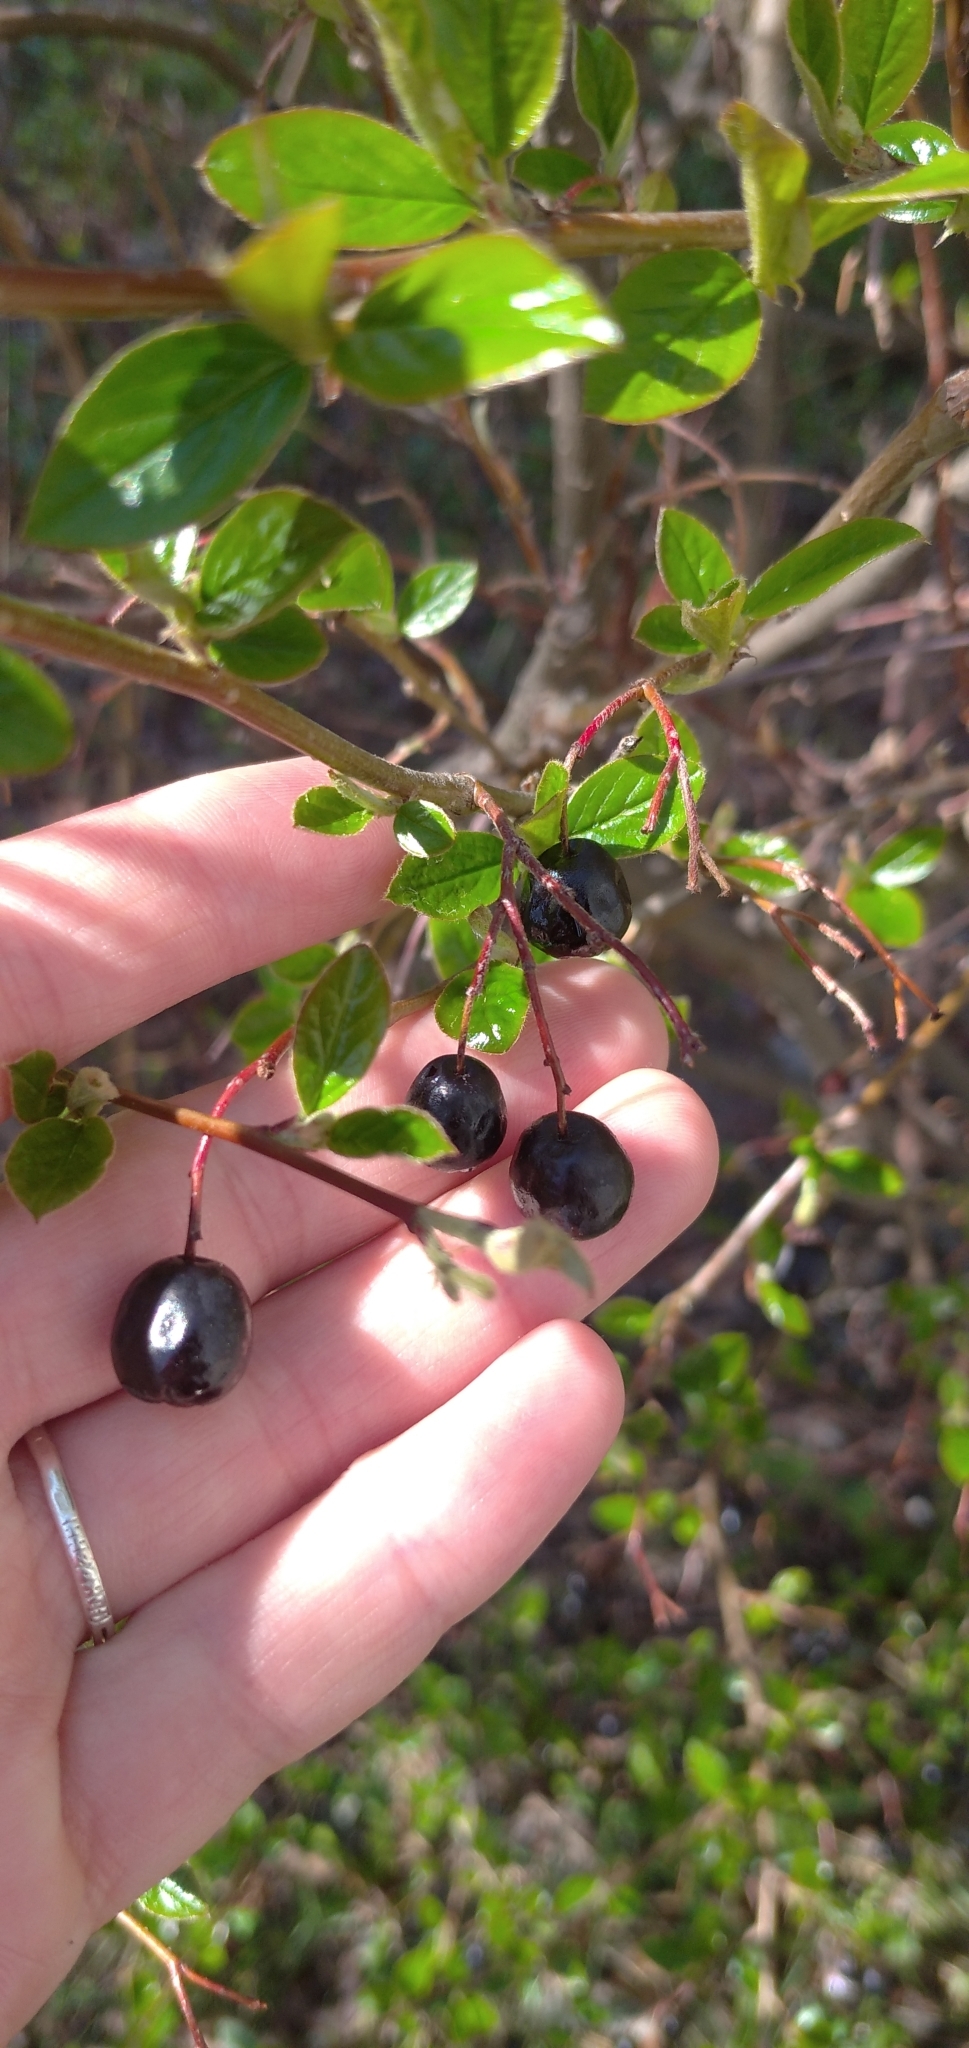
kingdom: Plantae
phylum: Tracheophyta
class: Magnoliopsida
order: Rosales
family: Rosaceae
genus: Cotoneaster
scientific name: Cotoneaster acutifolius
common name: Peking cotoneaster
